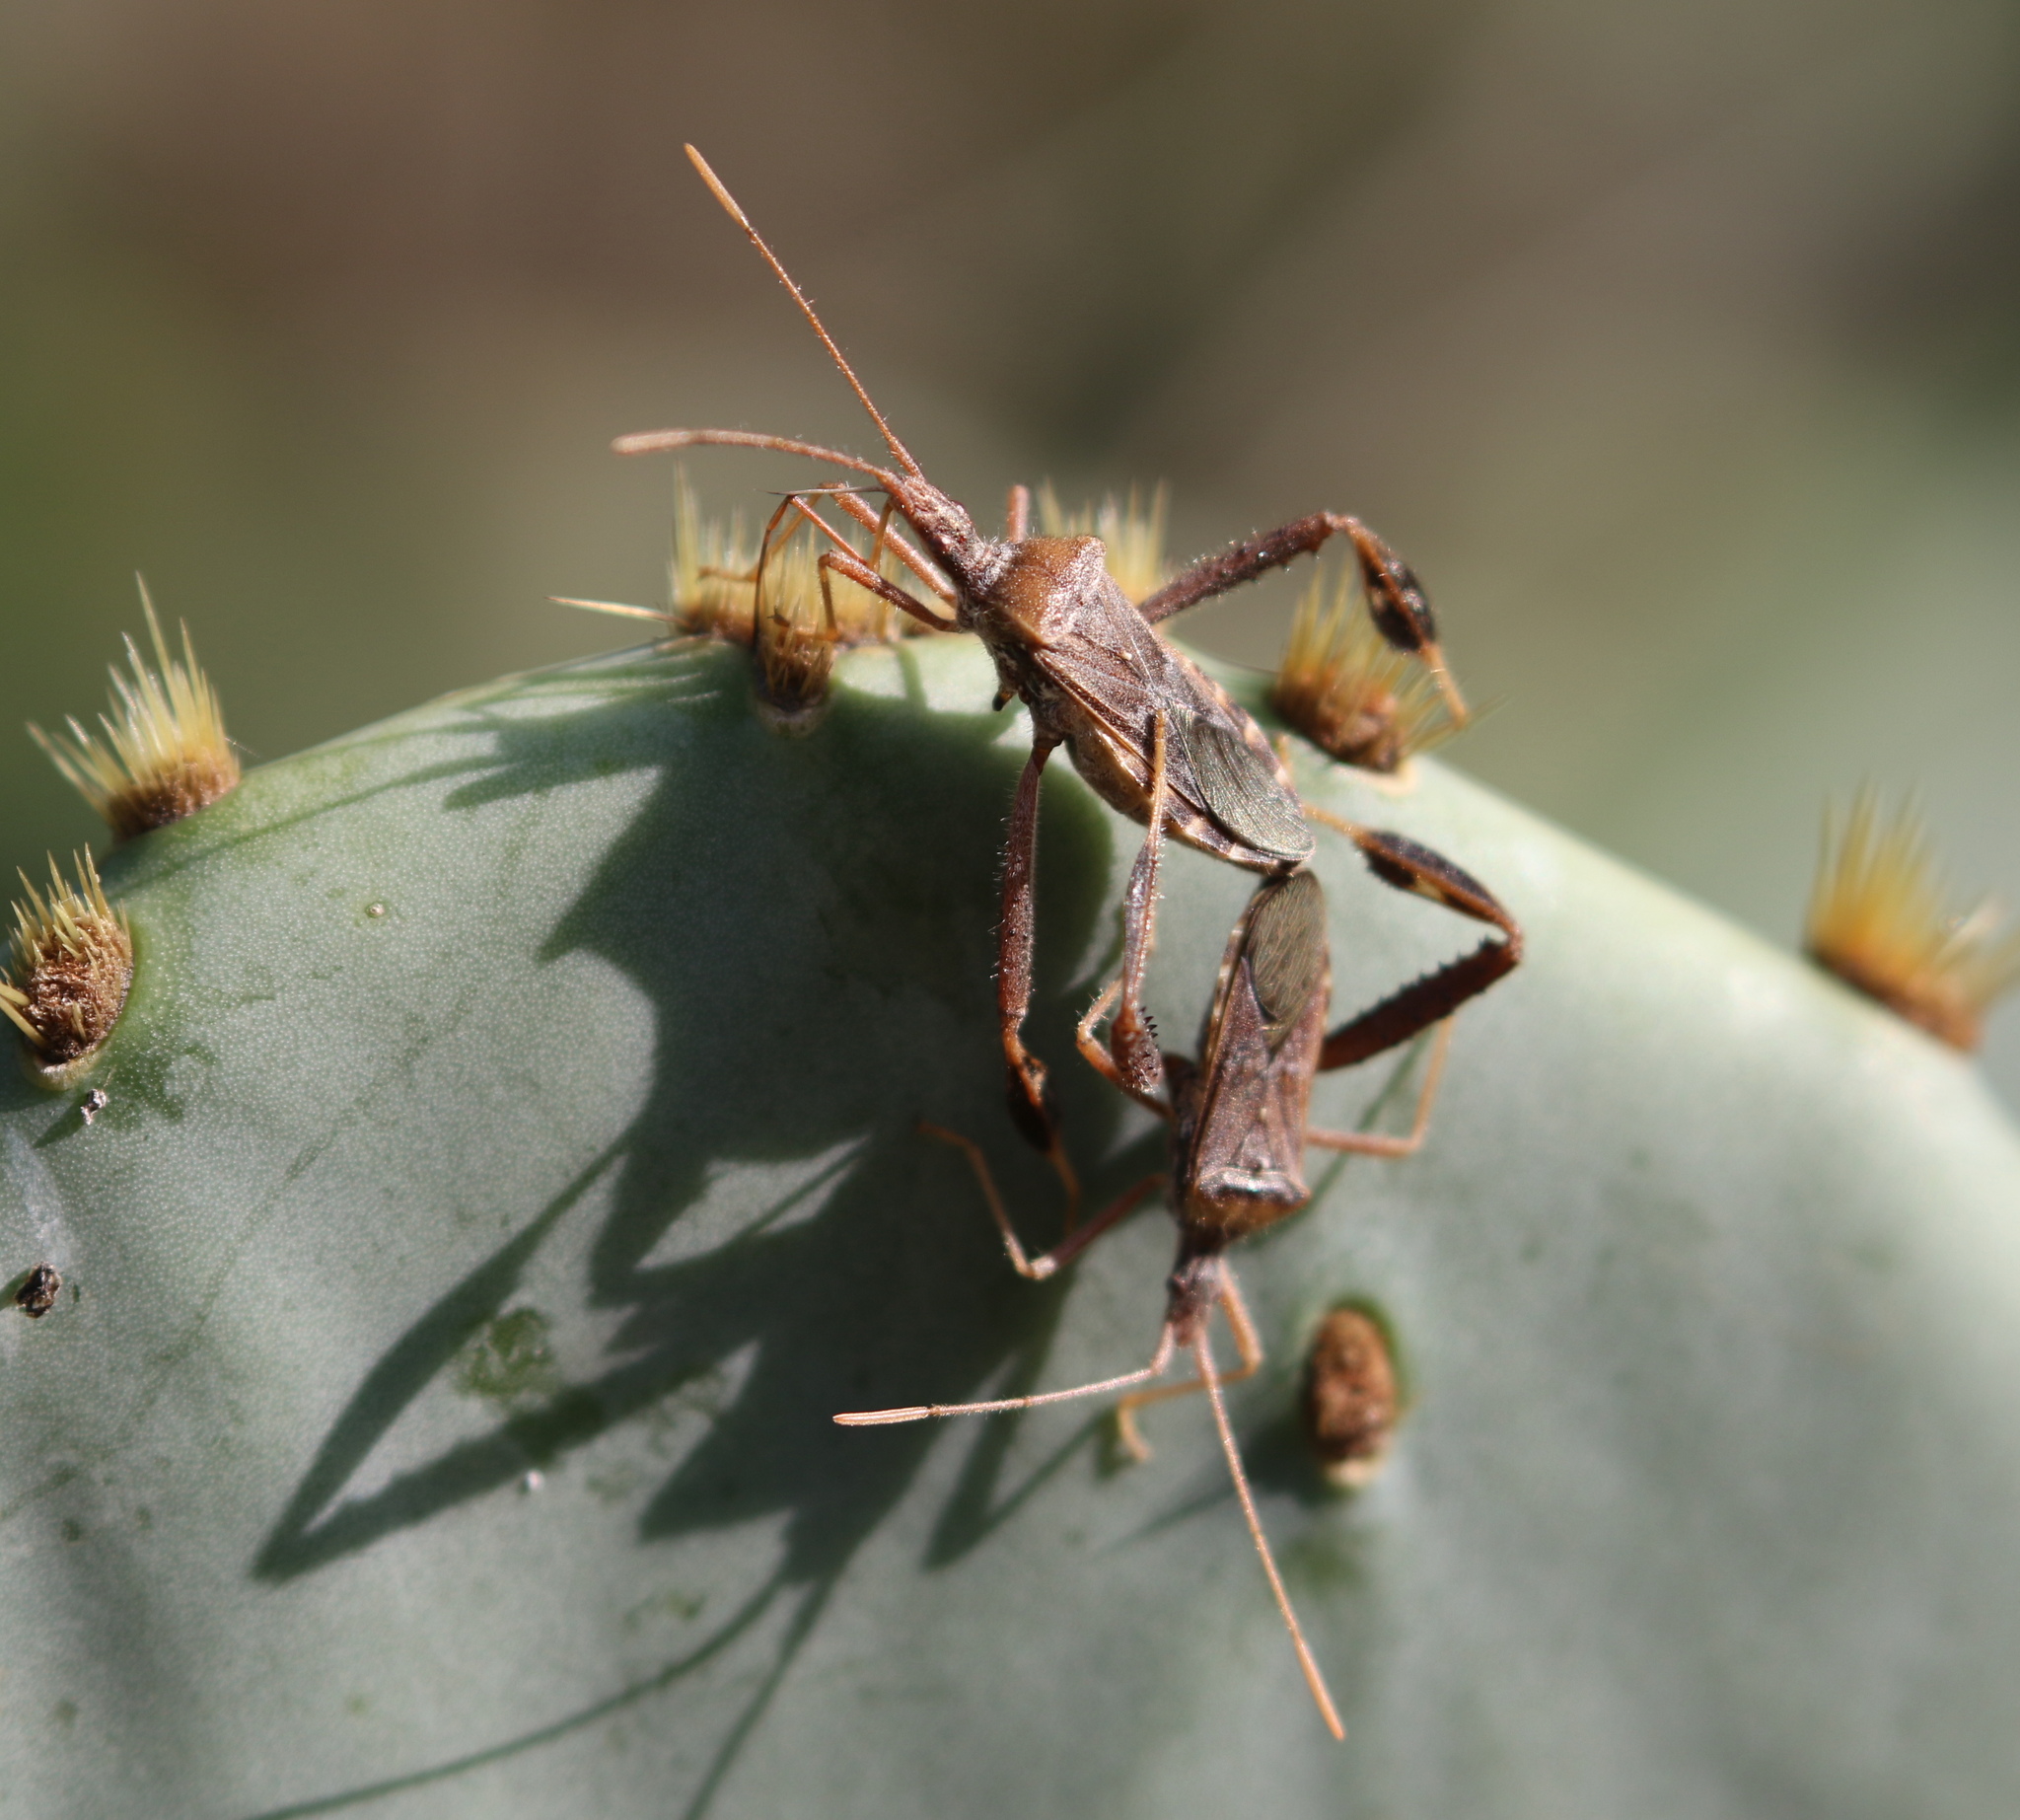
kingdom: Animalia
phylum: Arthropoda
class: Insecta
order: Hemiptera
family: Coreidae
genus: Narnia
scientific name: Narnia femorata
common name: Leaf-footed cactus bug
